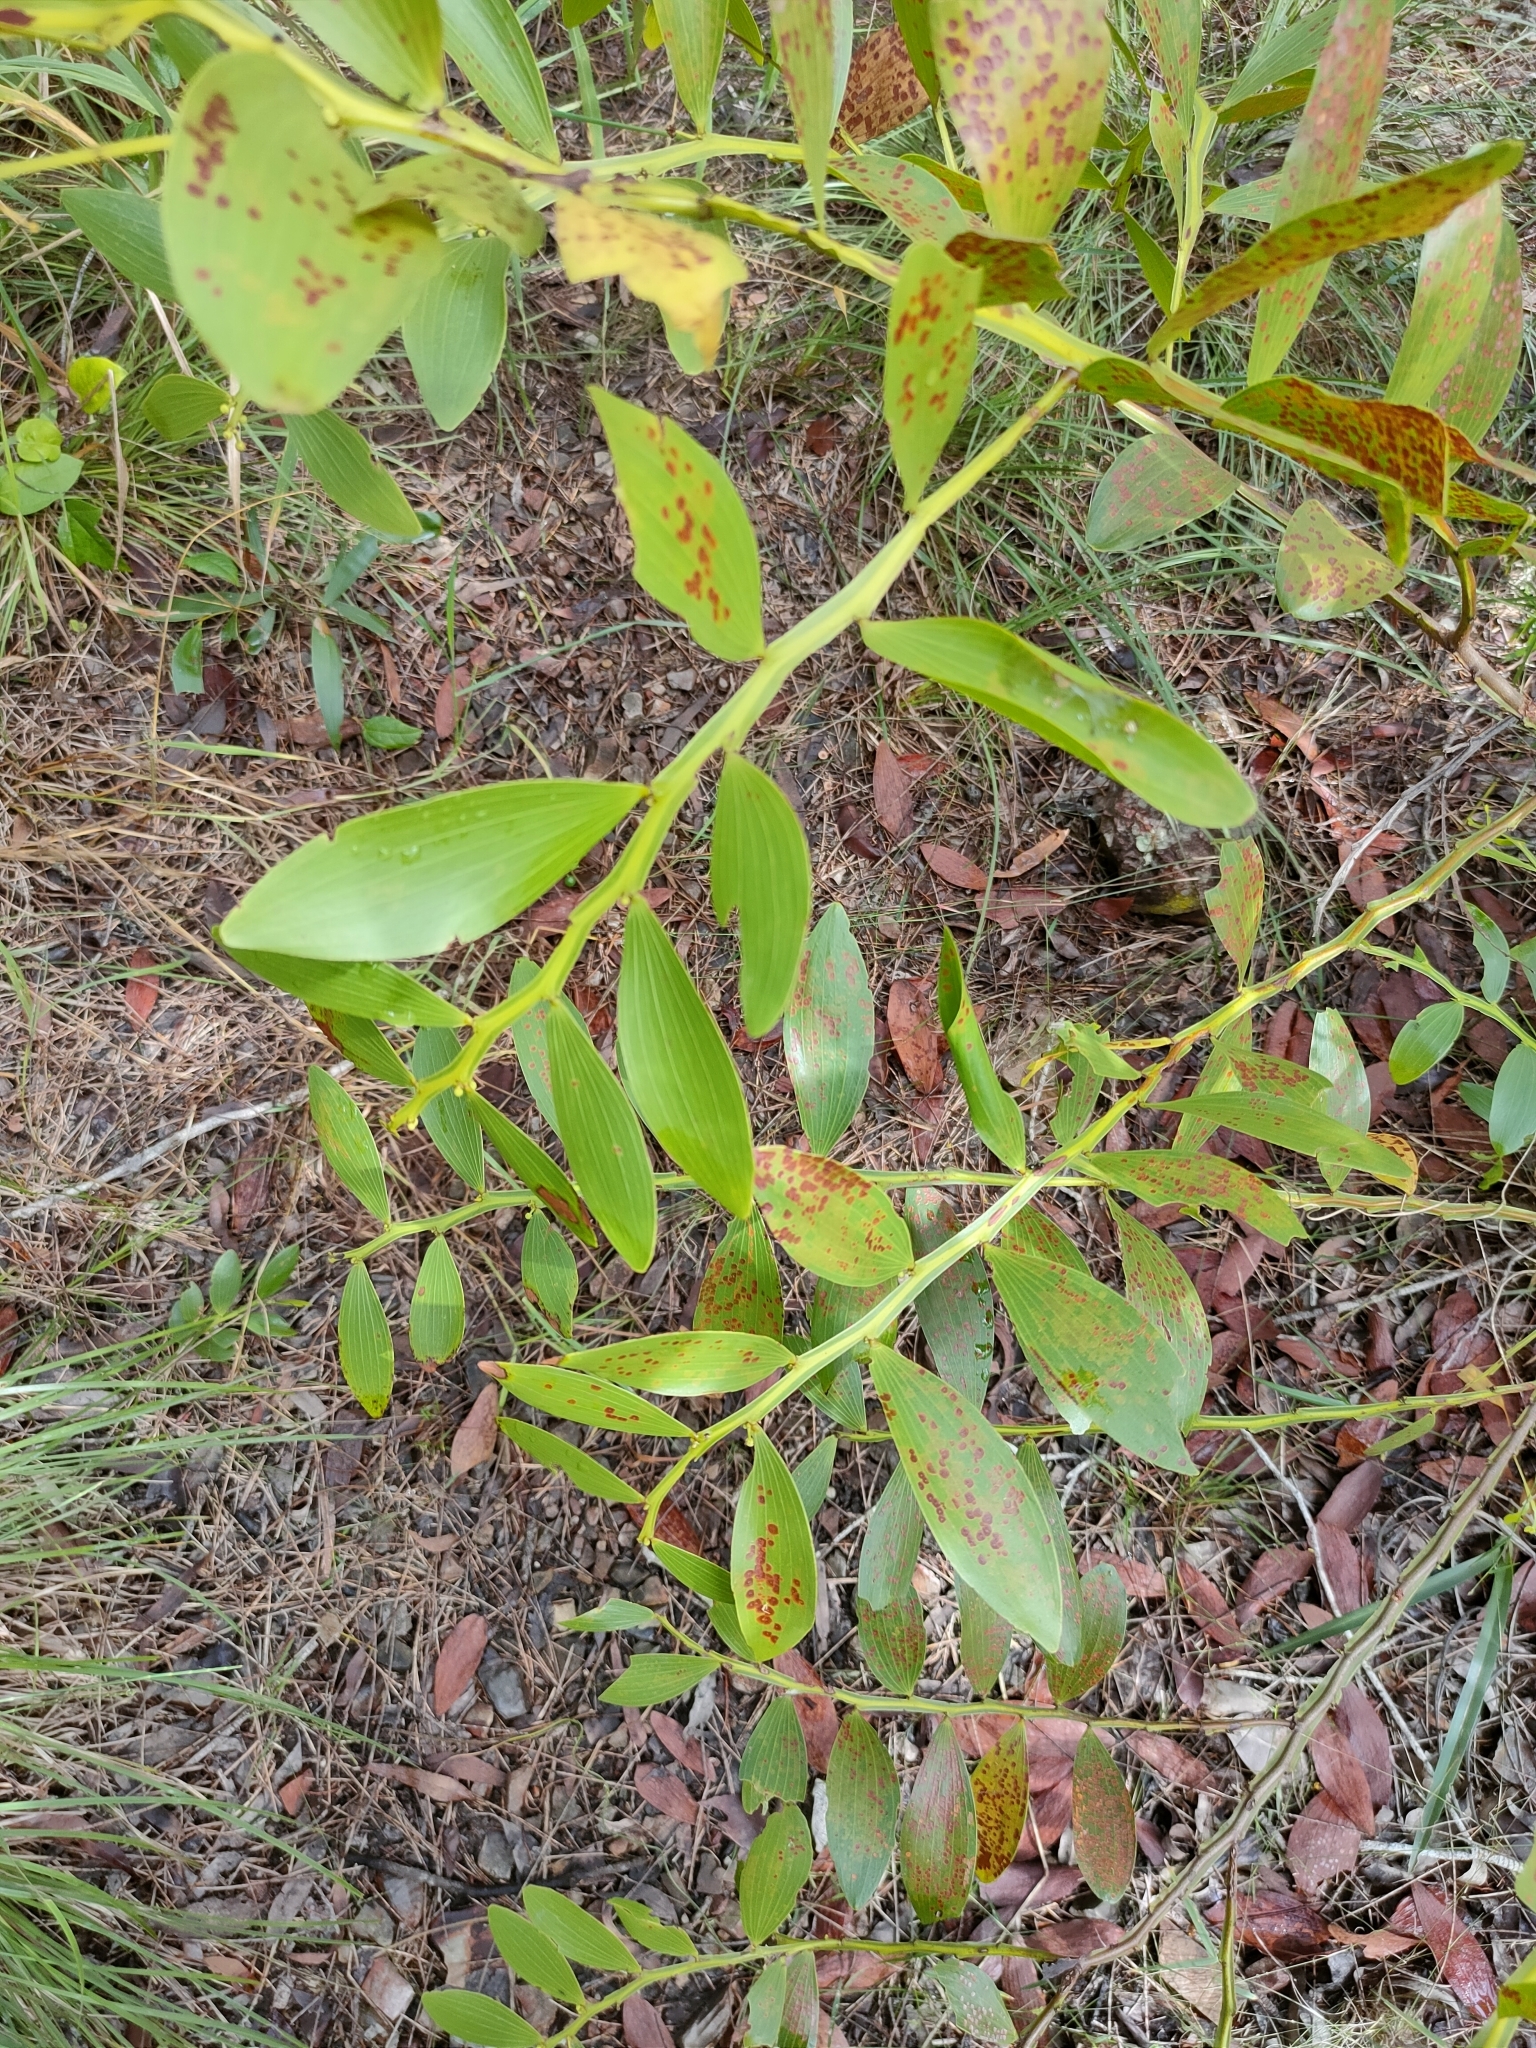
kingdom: Plantae
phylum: Tracheophyta
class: Magnoliopsida
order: Fabales
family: Fabaceae
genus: Acacia
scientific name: Acacia complanata
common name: Flat-stemmed wattle
